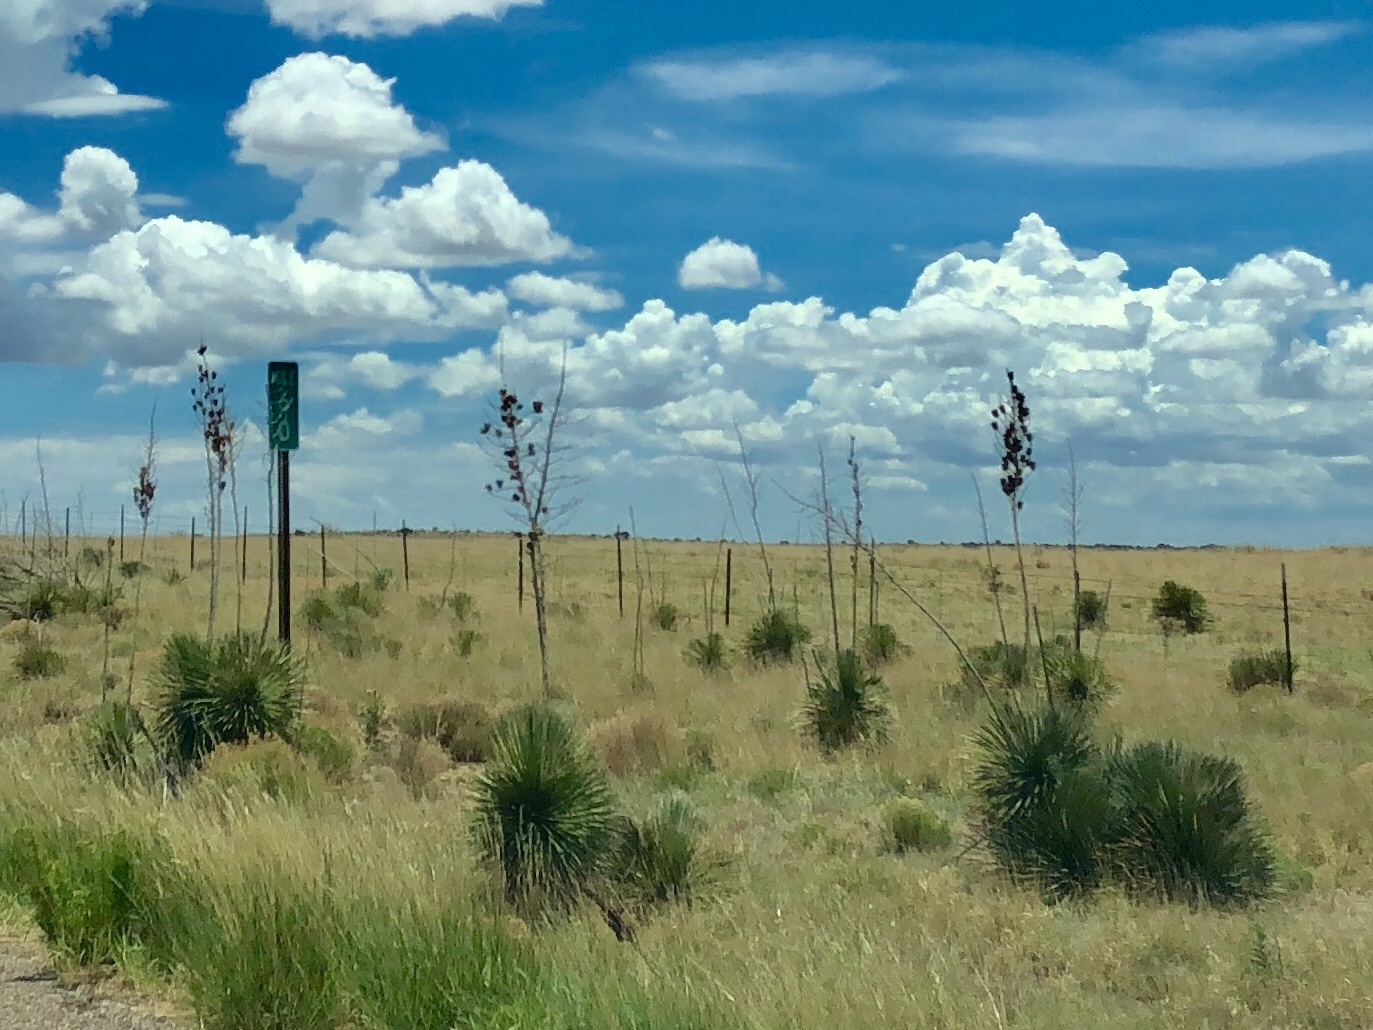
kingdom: Plantae
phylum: Tracheophyta
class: Liliopsida
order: Asparagales
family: Asparagaceae
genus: Yucca
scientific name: Yucca elata
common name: Palmella
